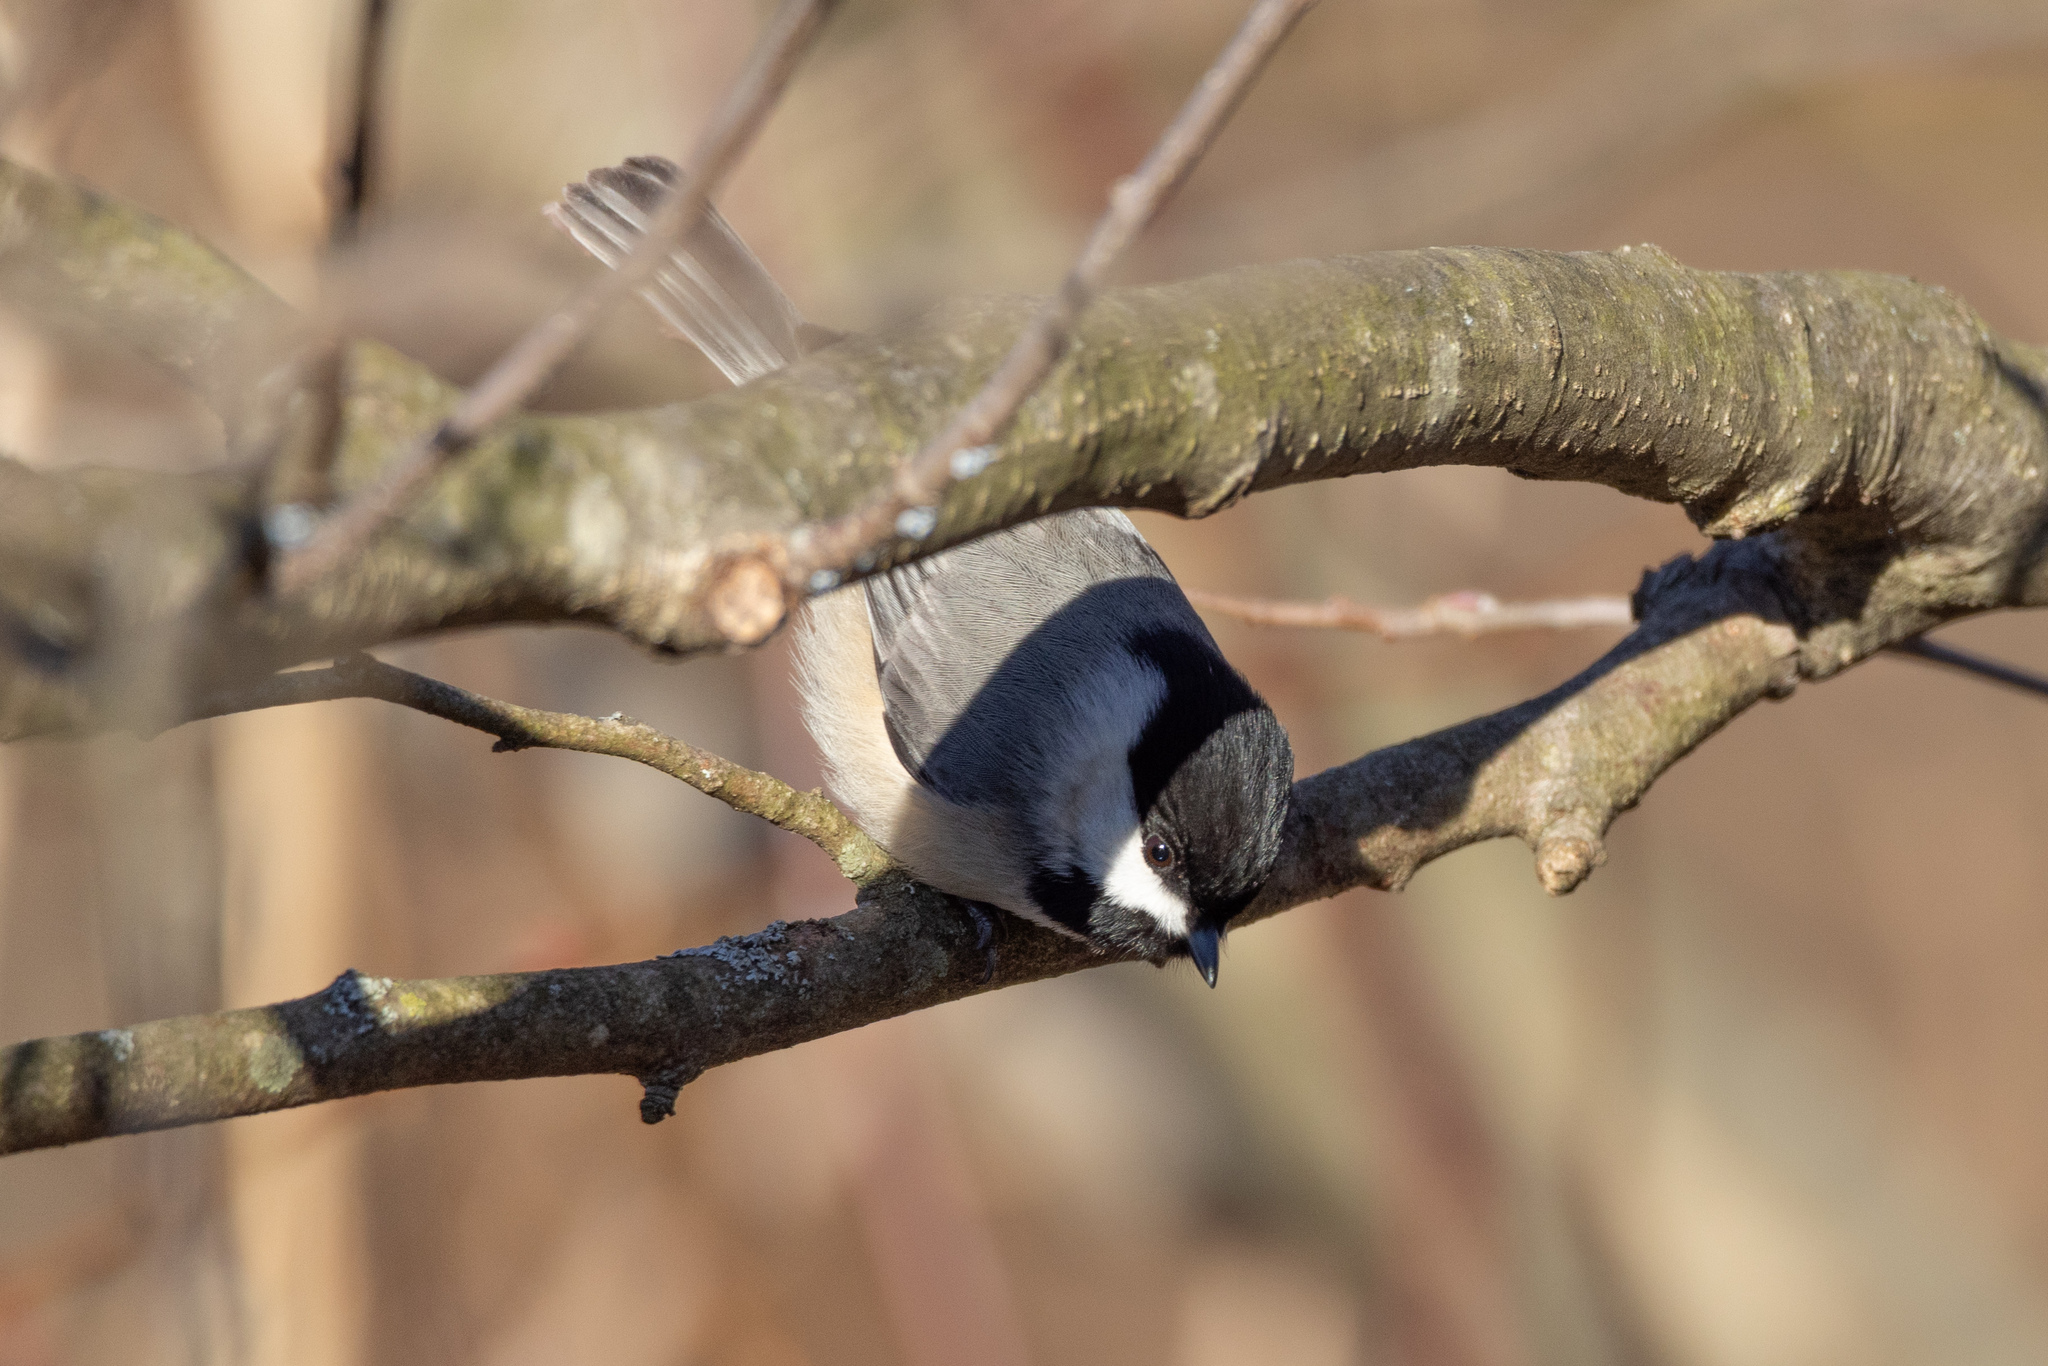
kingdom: Animalia
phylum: Chordata
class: Aves
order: Passeriformes
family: Paridae
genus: Poecile
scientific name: Poecile carolinensis
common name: Carolina chickadee
